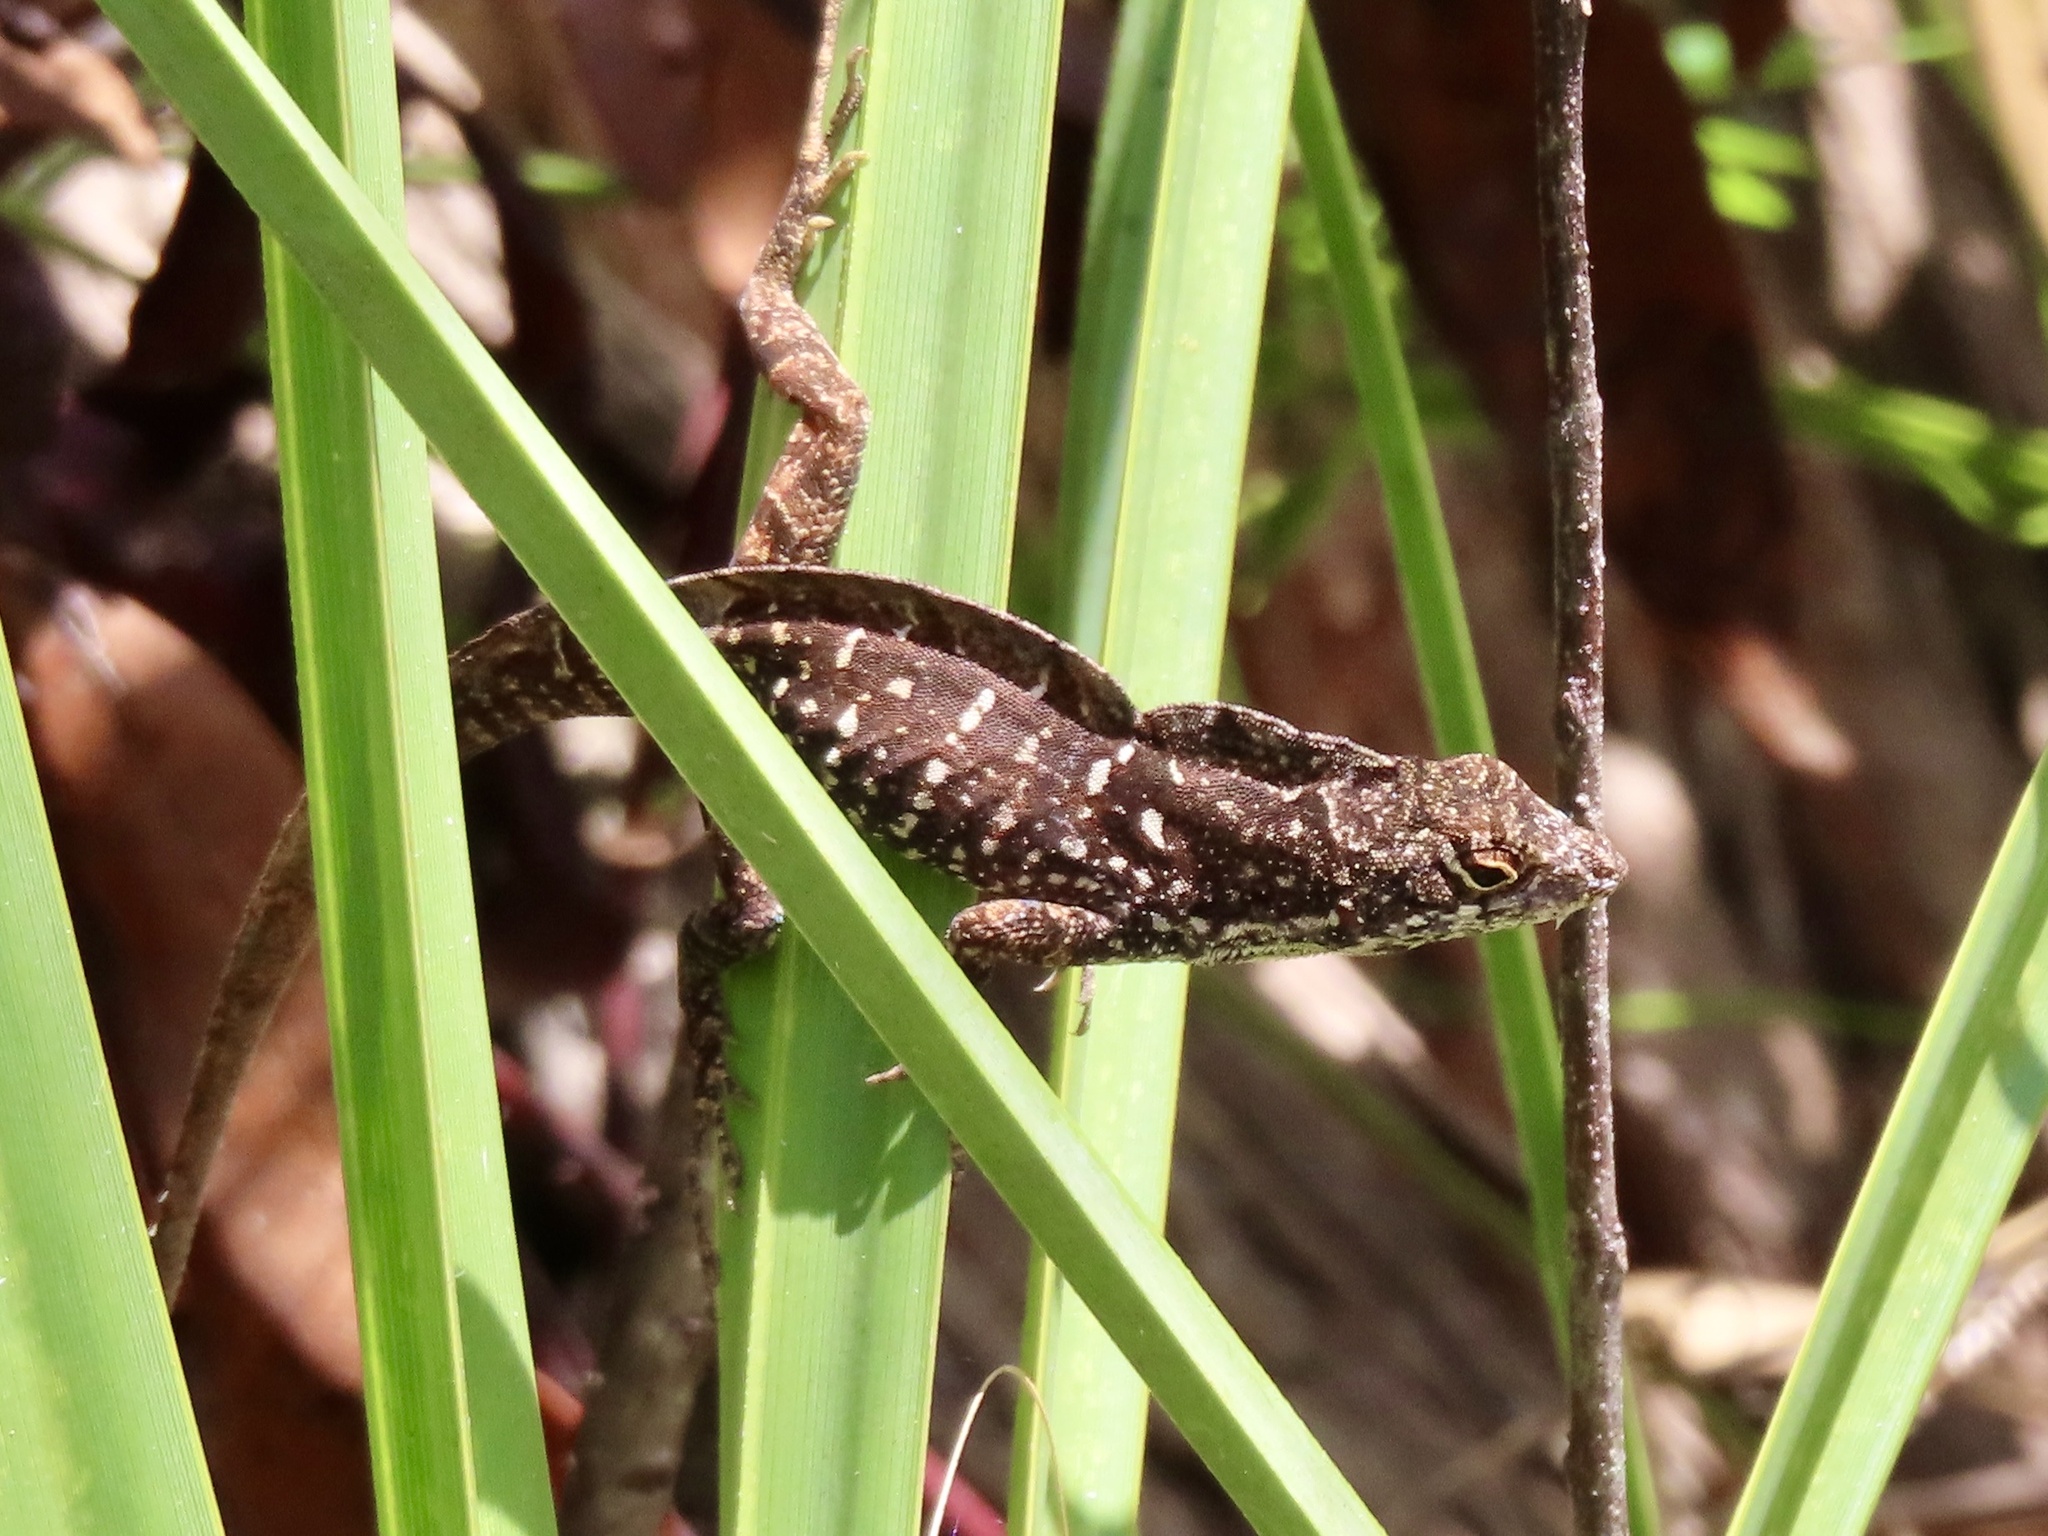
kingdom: Animalia
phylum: Chordata
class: Squamata
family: Dactyloidae
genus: Anolis
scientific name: Anolis sagrei
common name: Brown anole
